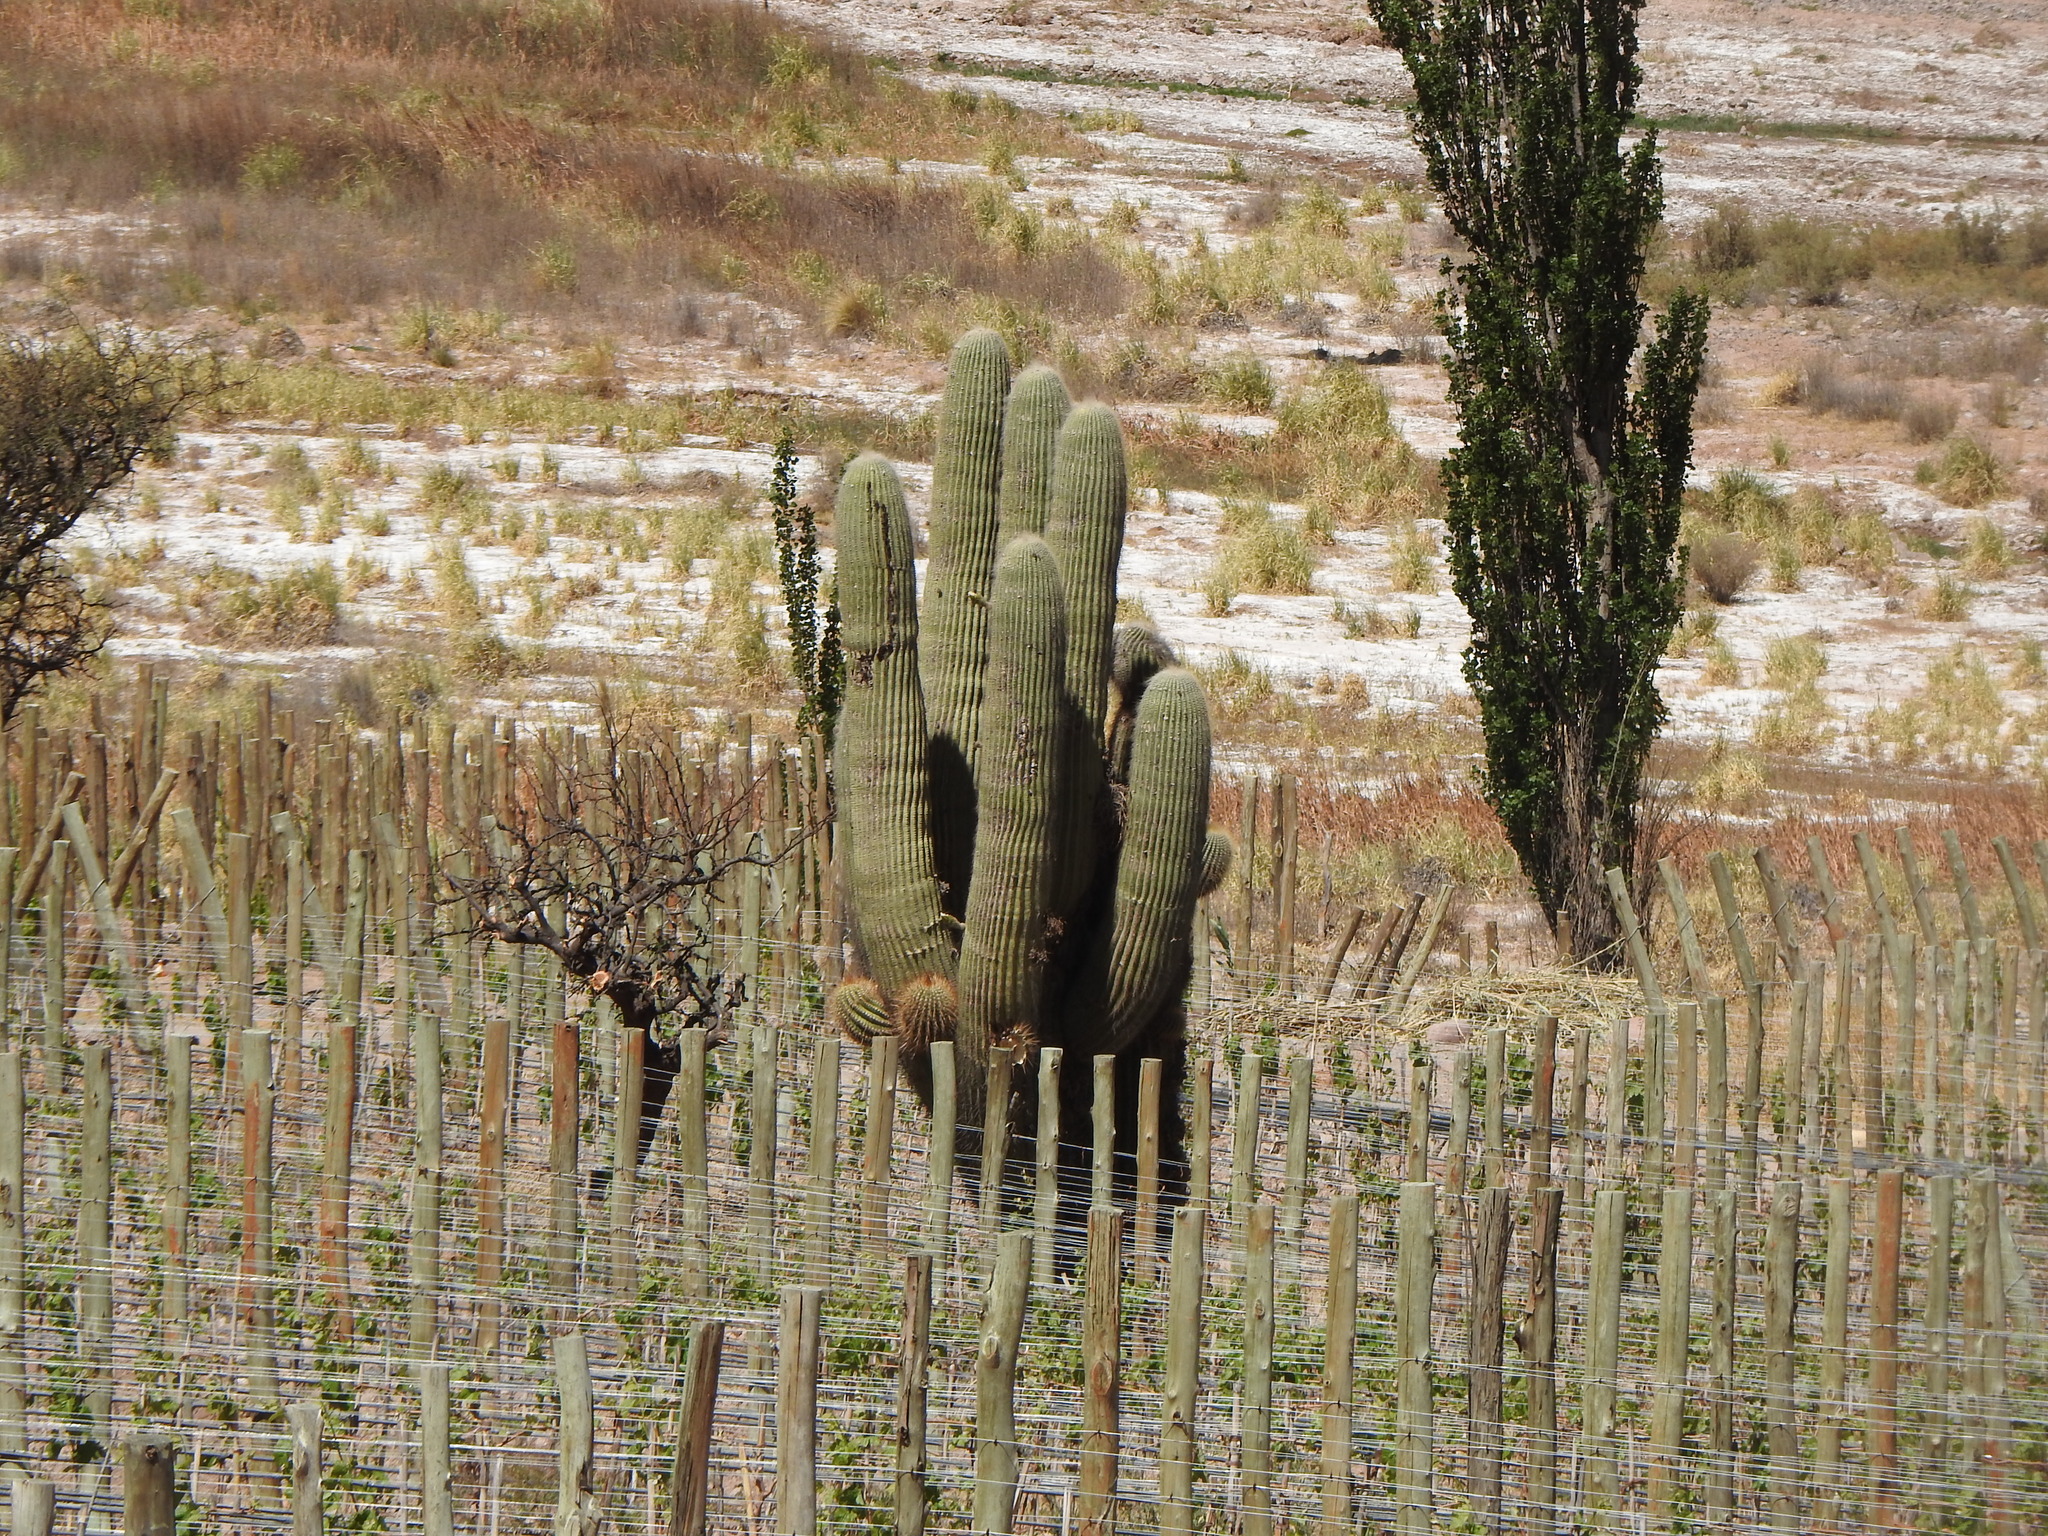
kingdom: Plantae
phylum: Tracheophyta
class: Magnoliopsida
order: Caryophyllales
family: Cactaceae
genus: Leucostele
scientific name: Leucostele atacamensis
